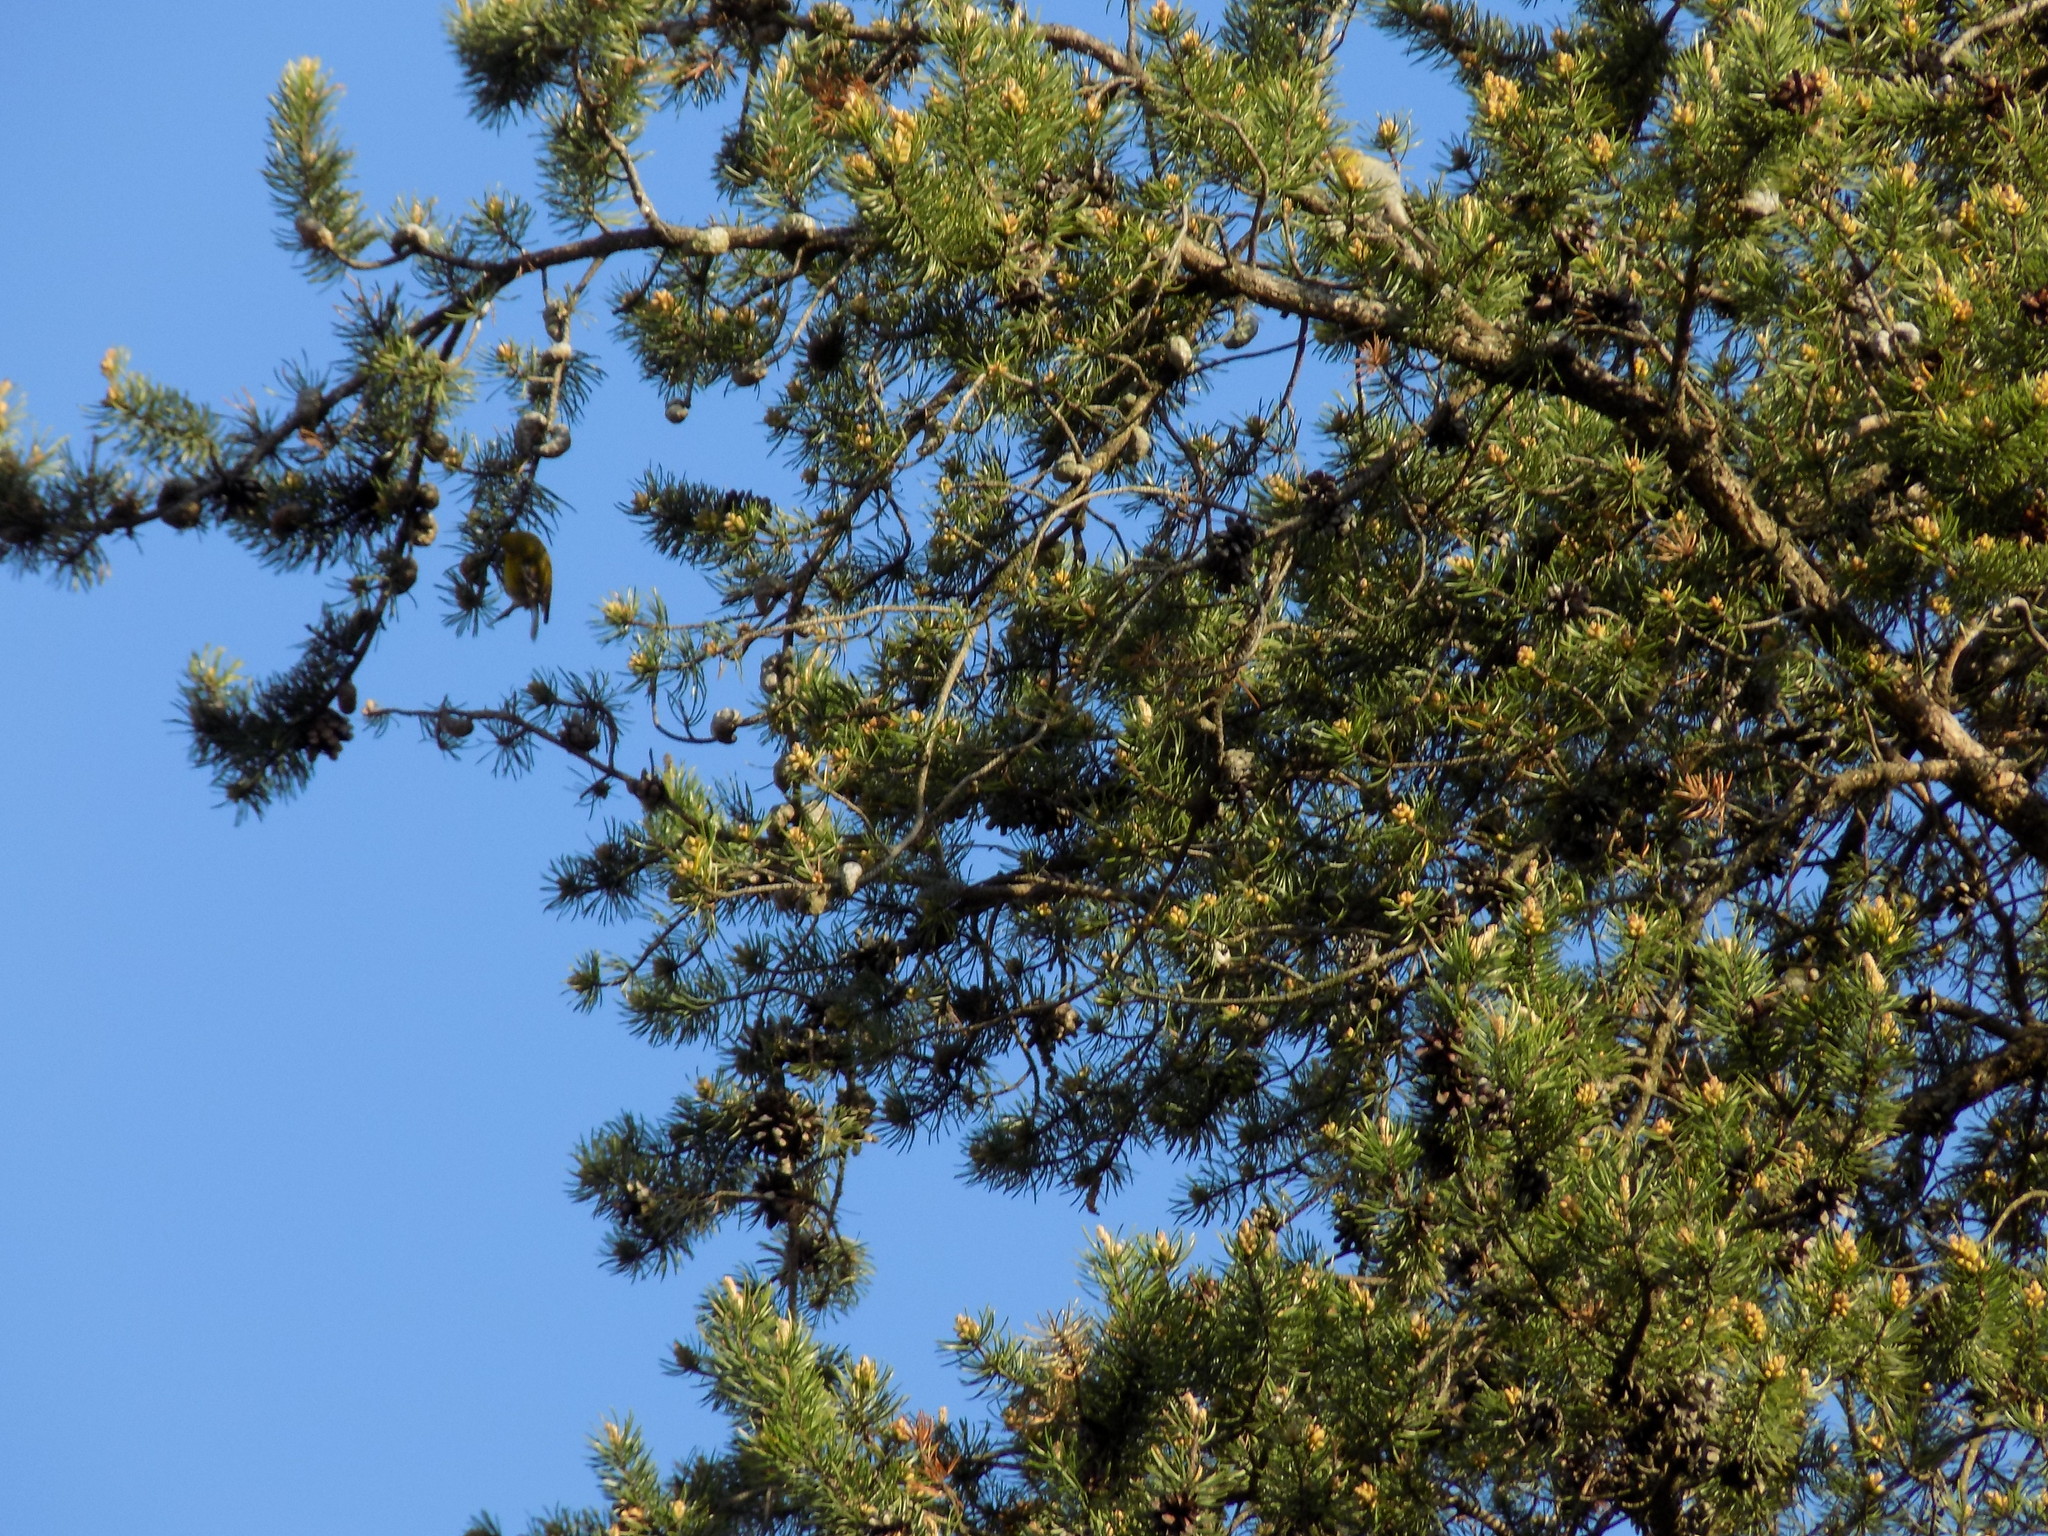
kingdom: Animalia
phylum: Chordata
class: Aves
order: Passeriformes
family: Parulidae
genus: Setophaga
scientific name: Setophaga pinus
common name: Pine warbler
